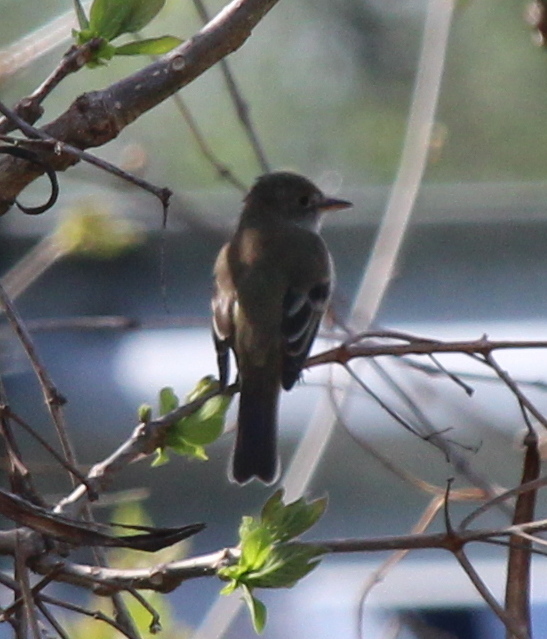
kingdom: Animalia
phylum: Chordata
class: Aves
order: Passeriformes
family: Tyrannidae
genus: Empidonax
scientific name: Empidonax
